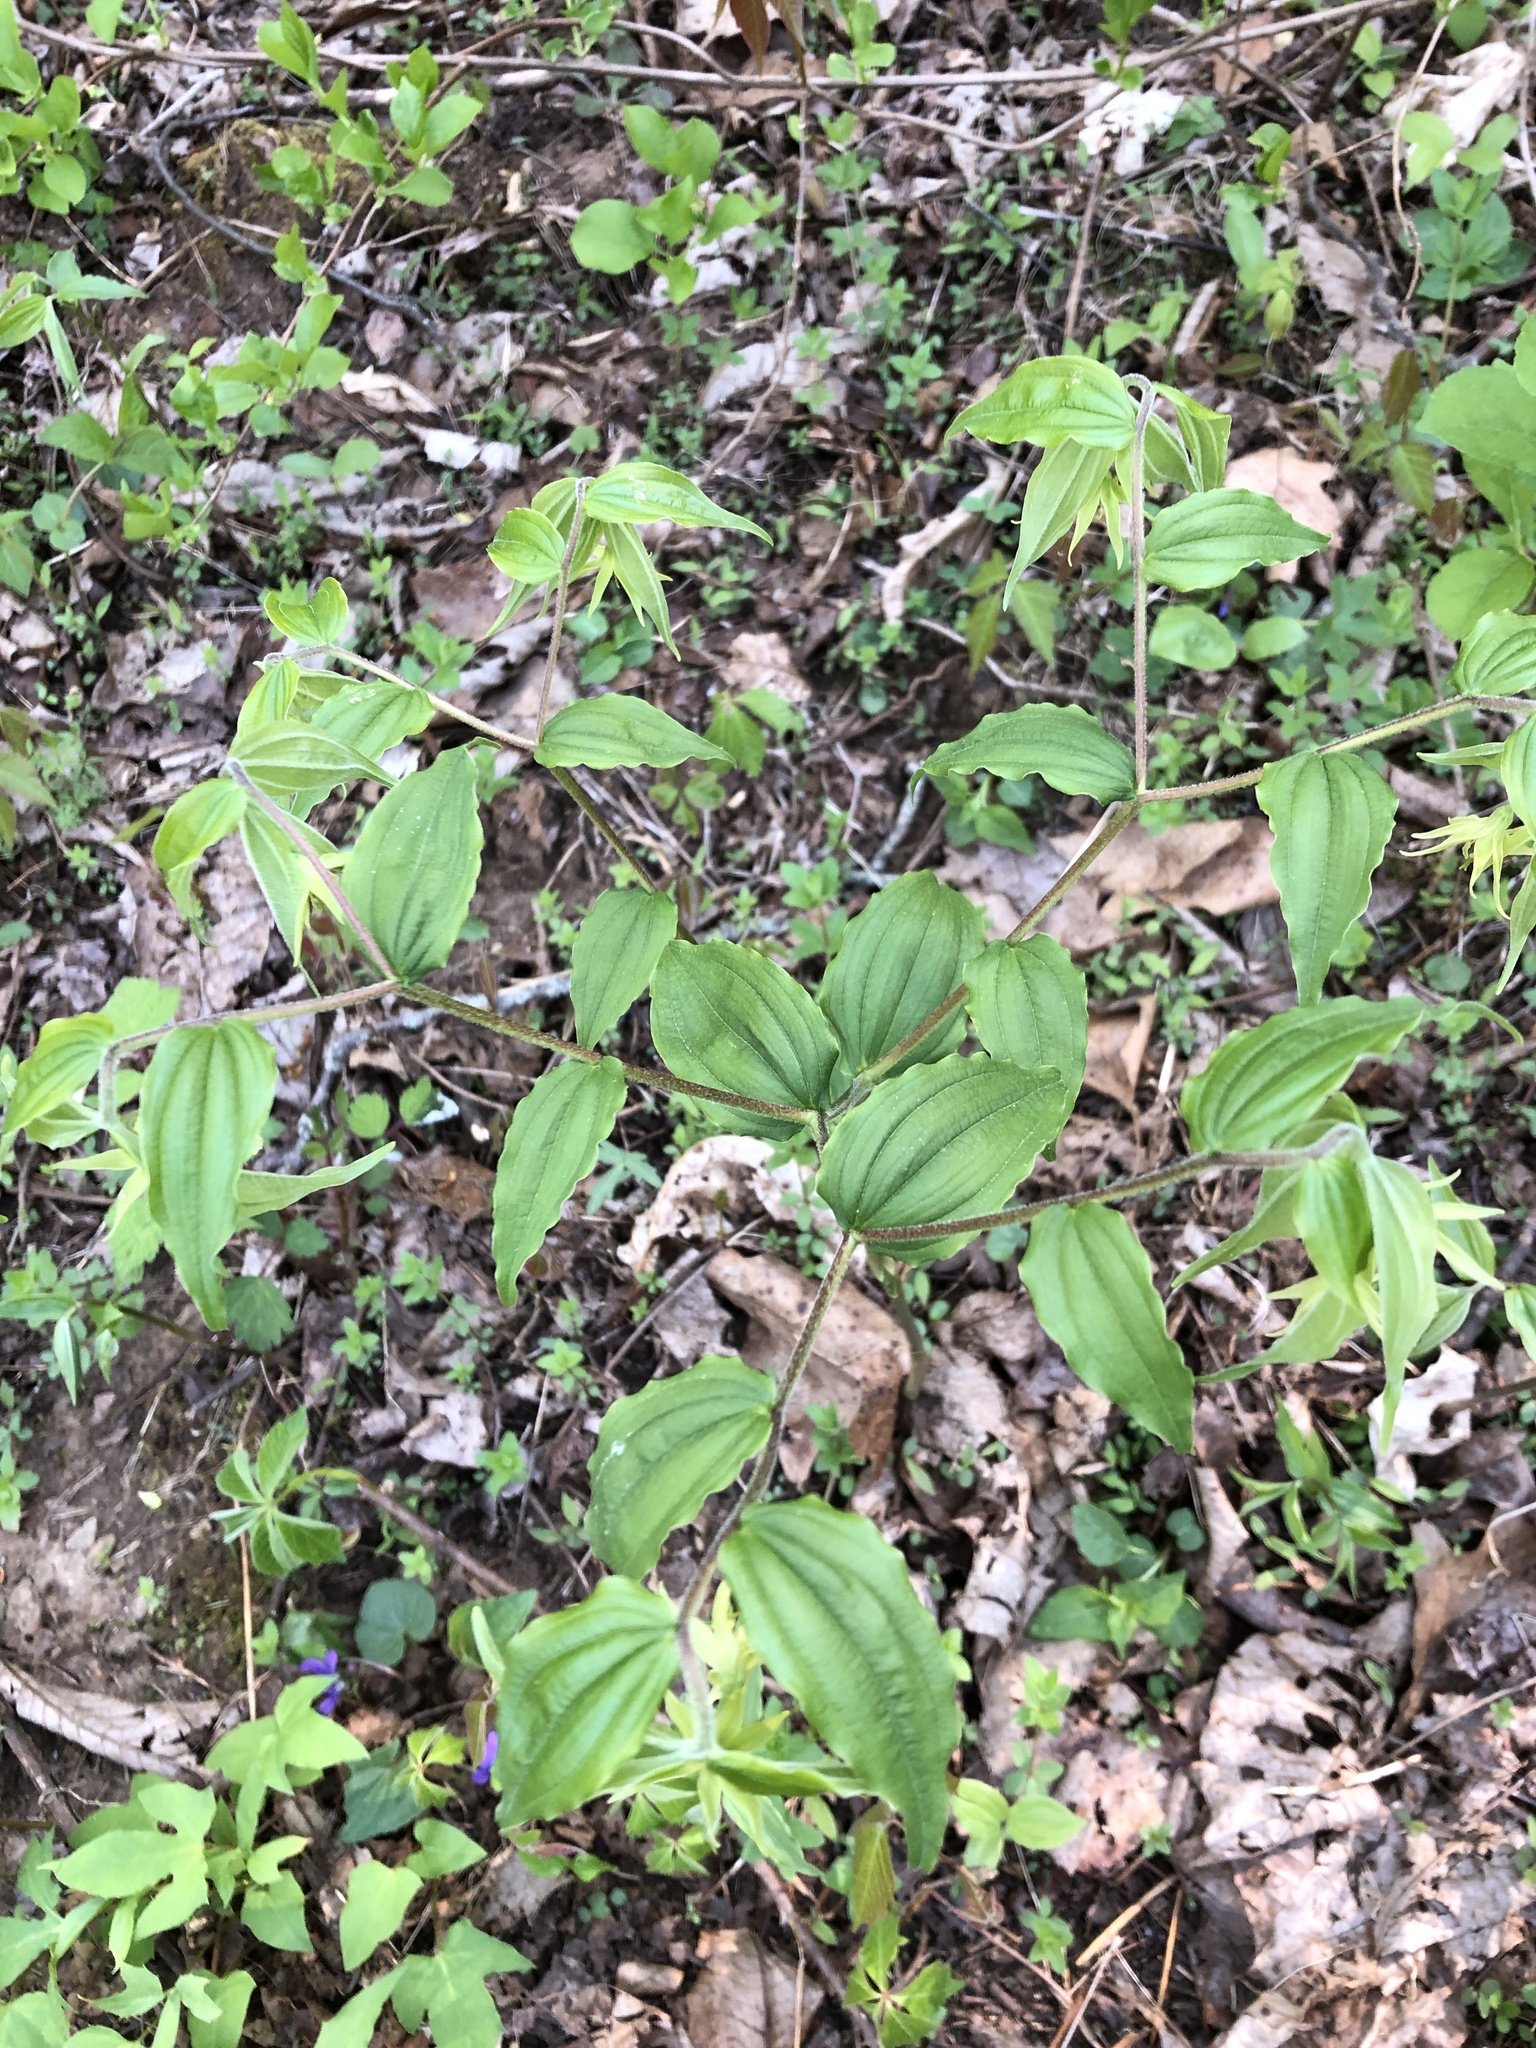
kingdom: Plantae
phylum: Tracheophyta
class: Liliopsida
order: Liliales
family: Liliaceae
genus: Prosartes
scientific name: Prosartes lanuginosa
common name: Hairy mandarin
